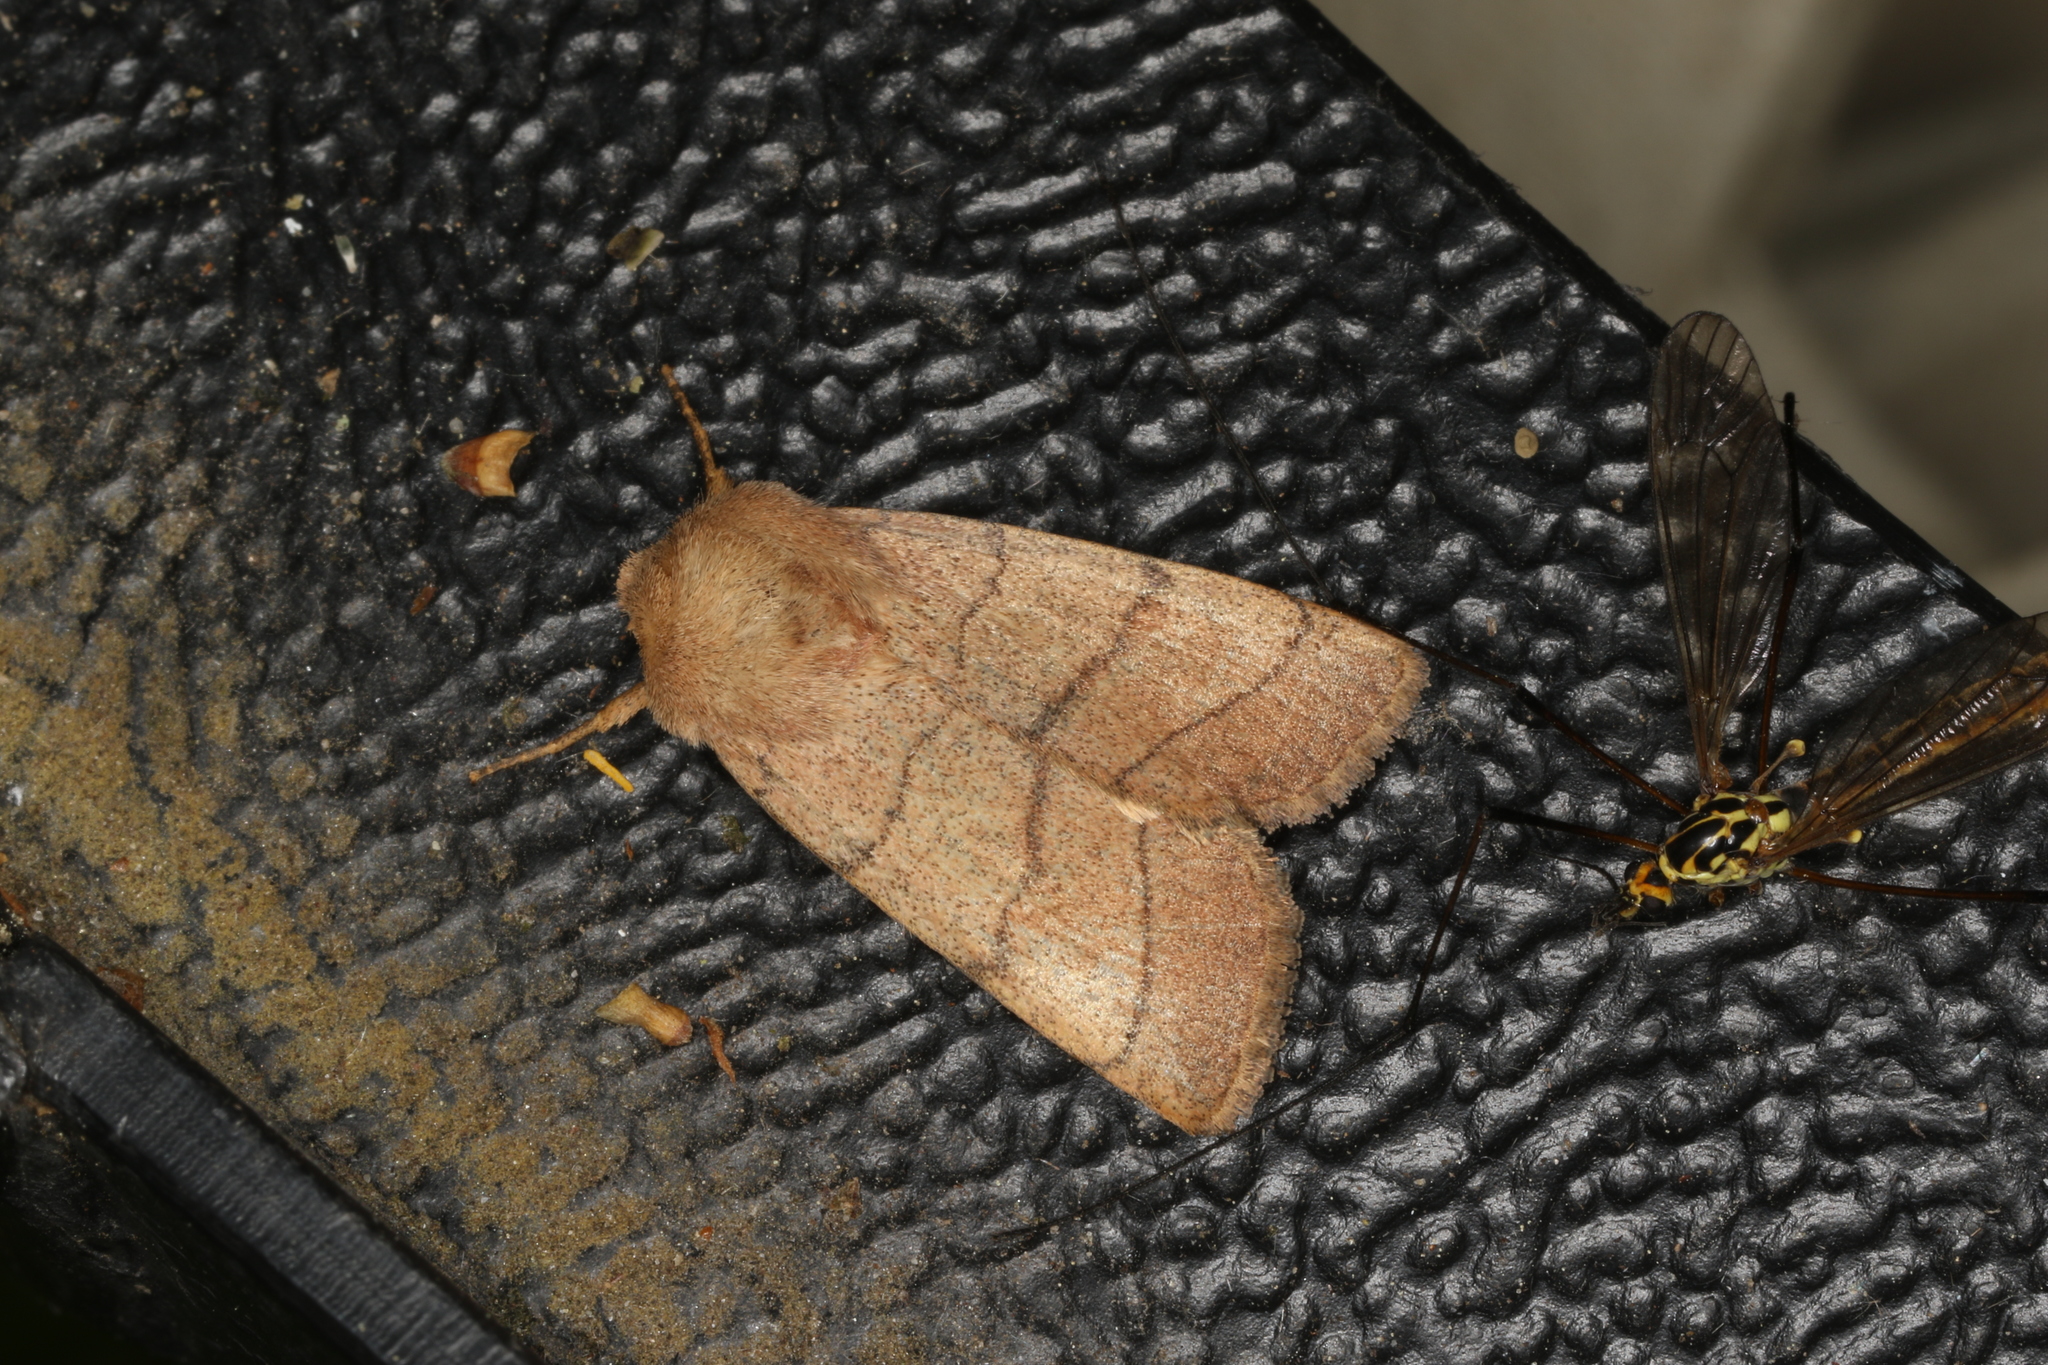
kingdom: Animalia
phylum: Arthropoda
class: Insecta
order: Lepidoptera
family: Noctuidae
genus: Charanyca
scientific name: Charanyca trigrammica
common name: Treble lines
